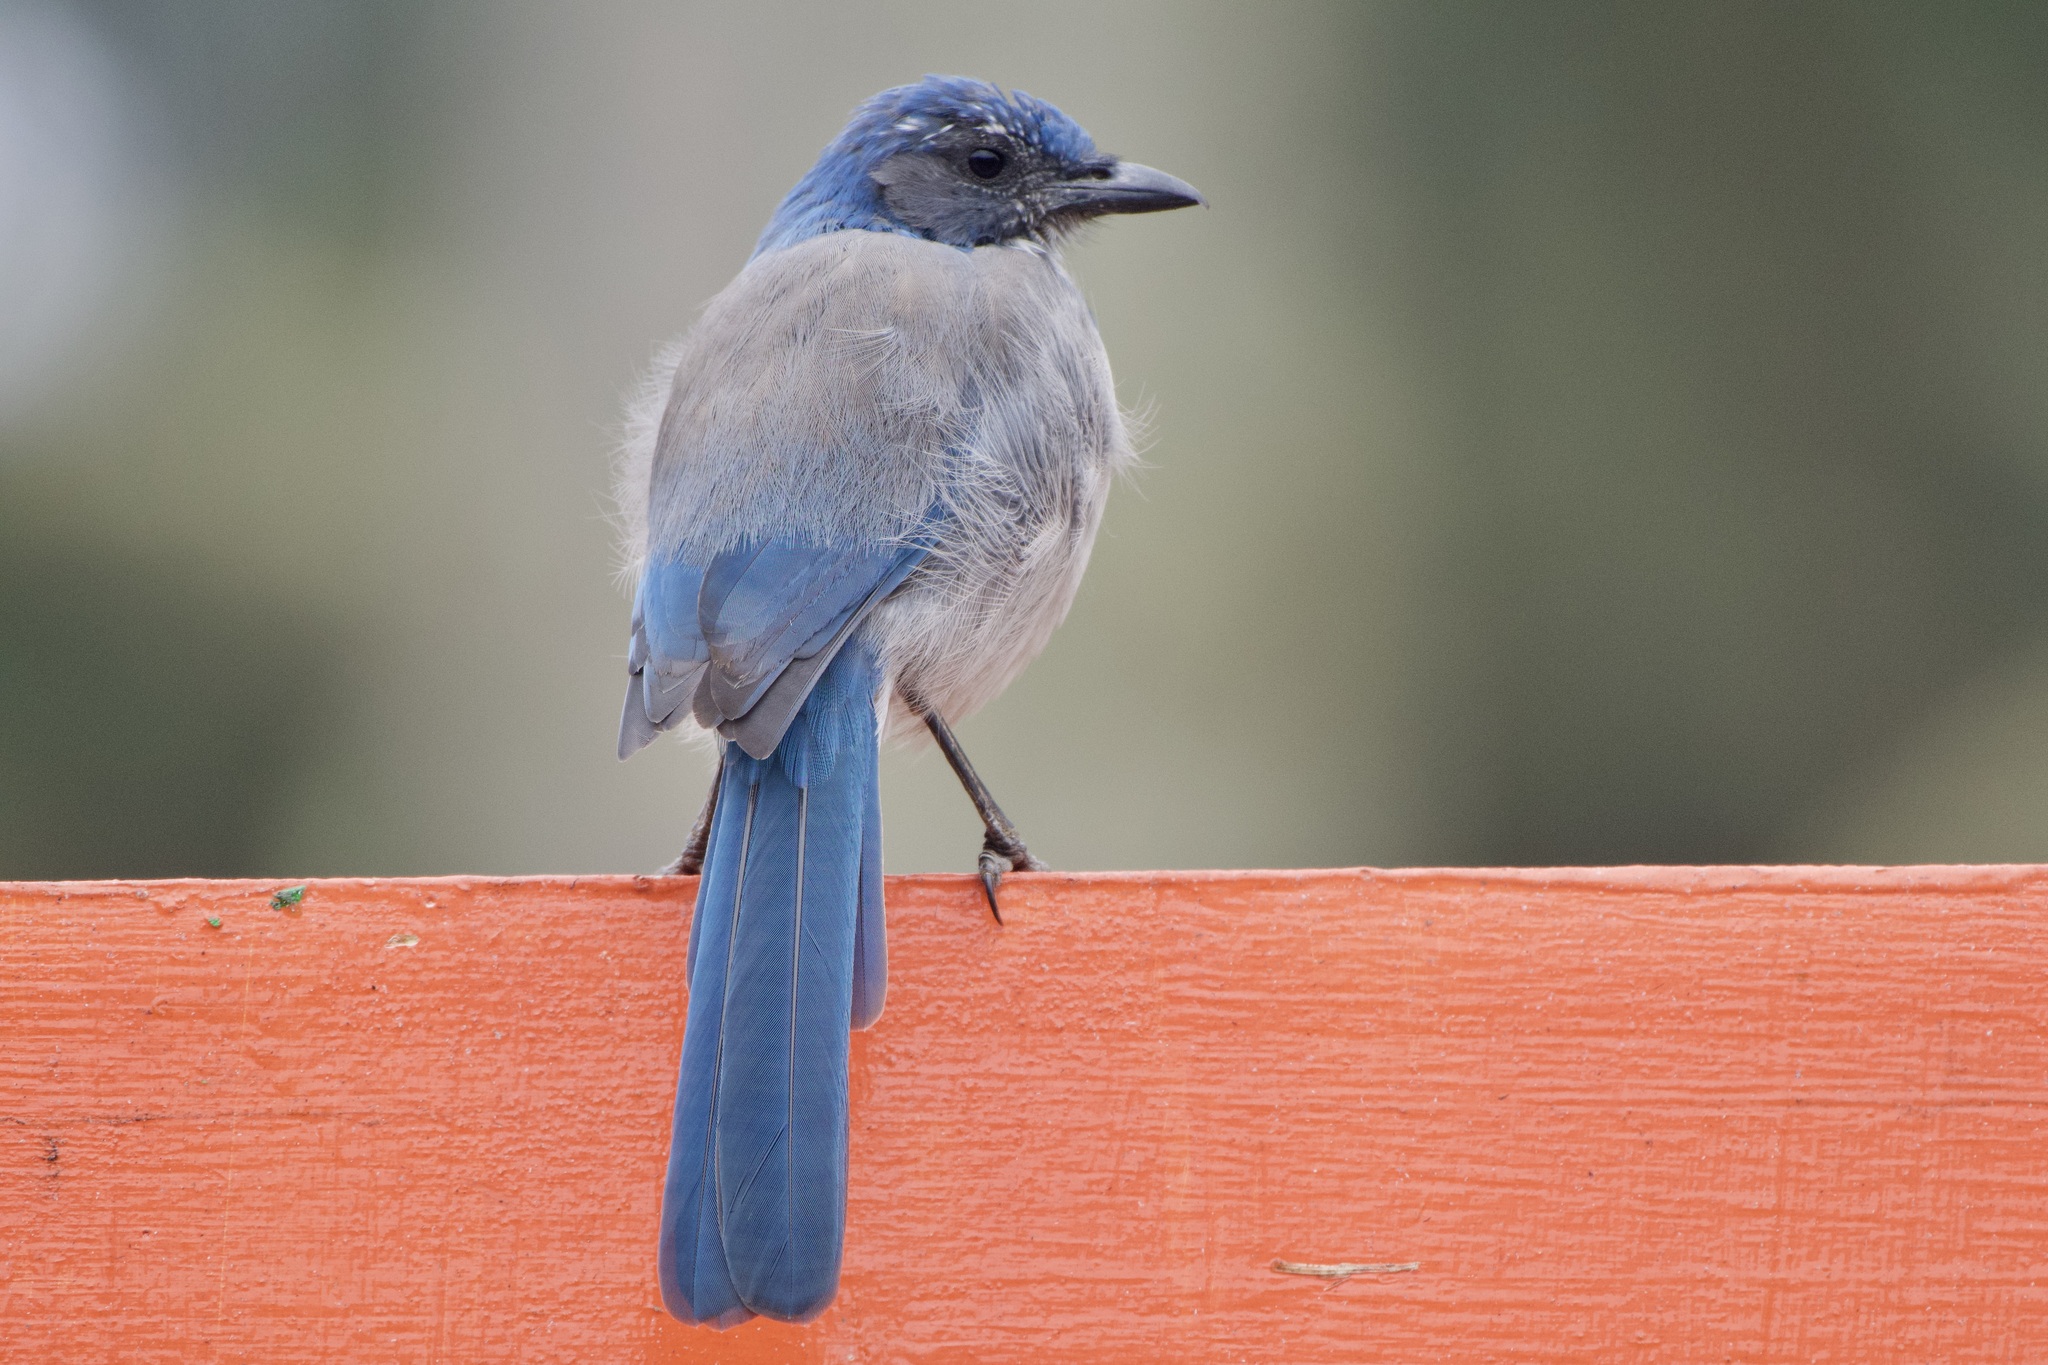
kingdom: Animalia
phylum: Chordata
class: Aves
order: Passeriformes
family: Corvidae
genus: Aphelocoma
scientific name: Aphelocoma californica
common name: California scrub-jay
